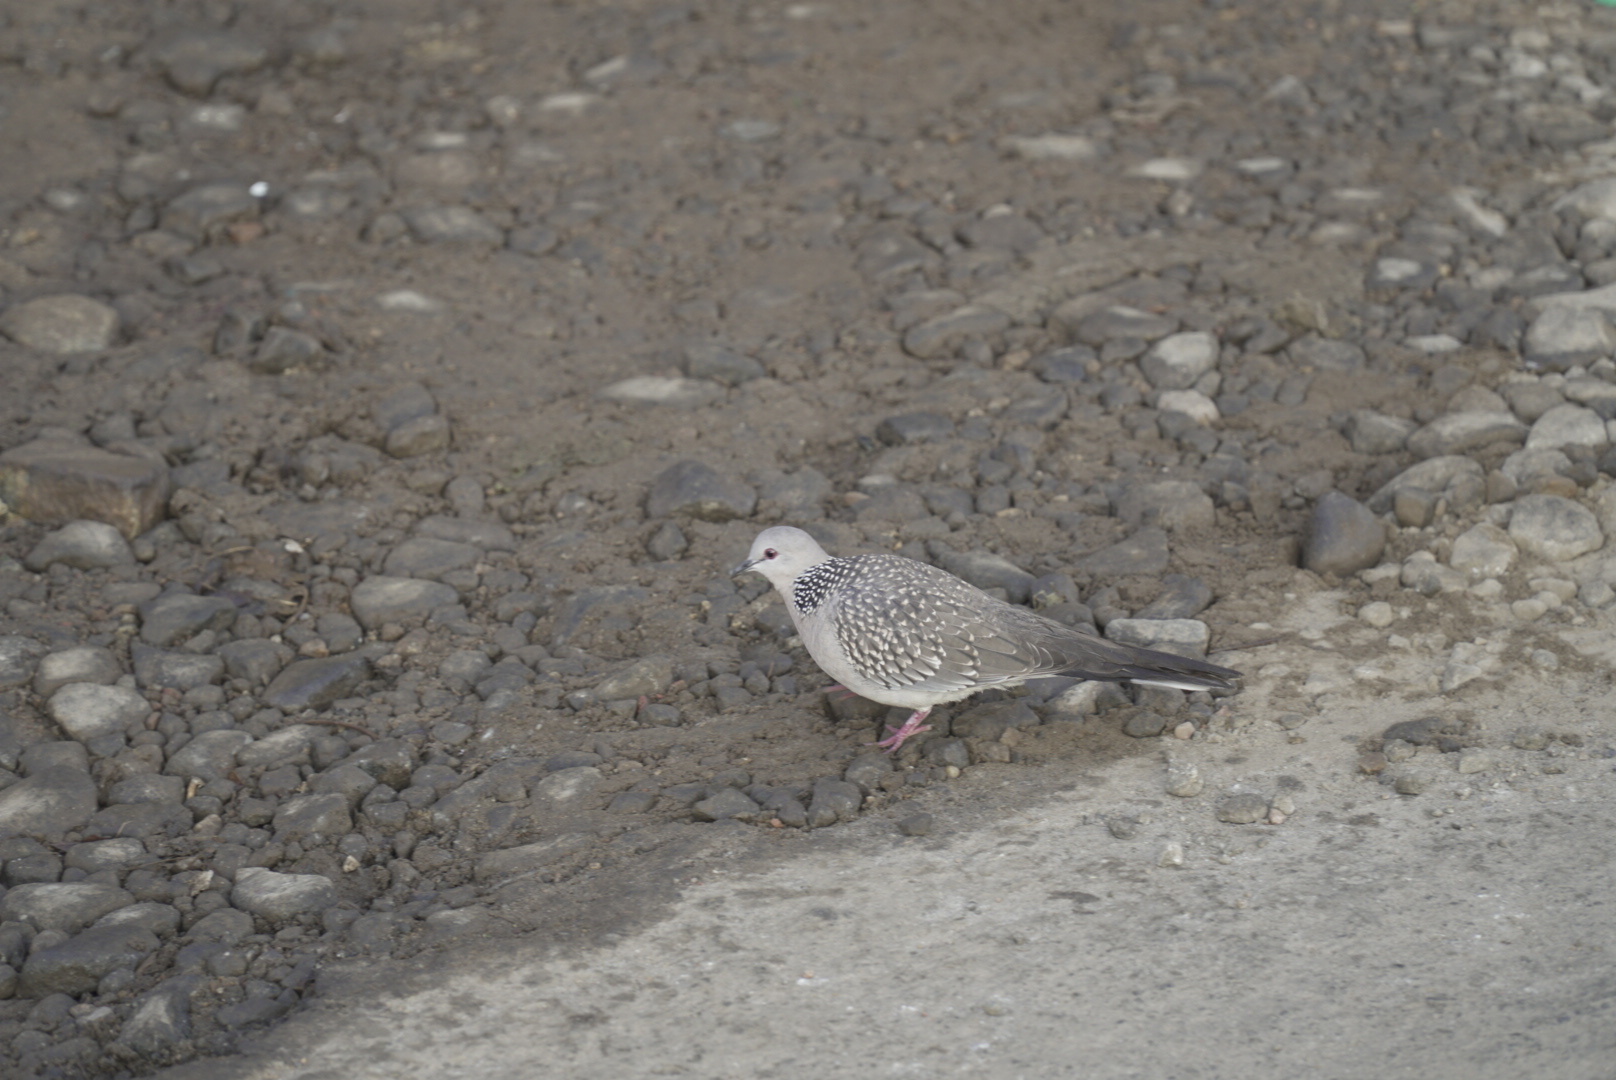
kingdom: Animalia
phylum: Chordata
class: Aves
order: Columbiformes
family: Columbidae
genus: Spilopelia
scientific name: Spilopelia chinensis
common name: Spotted dove
